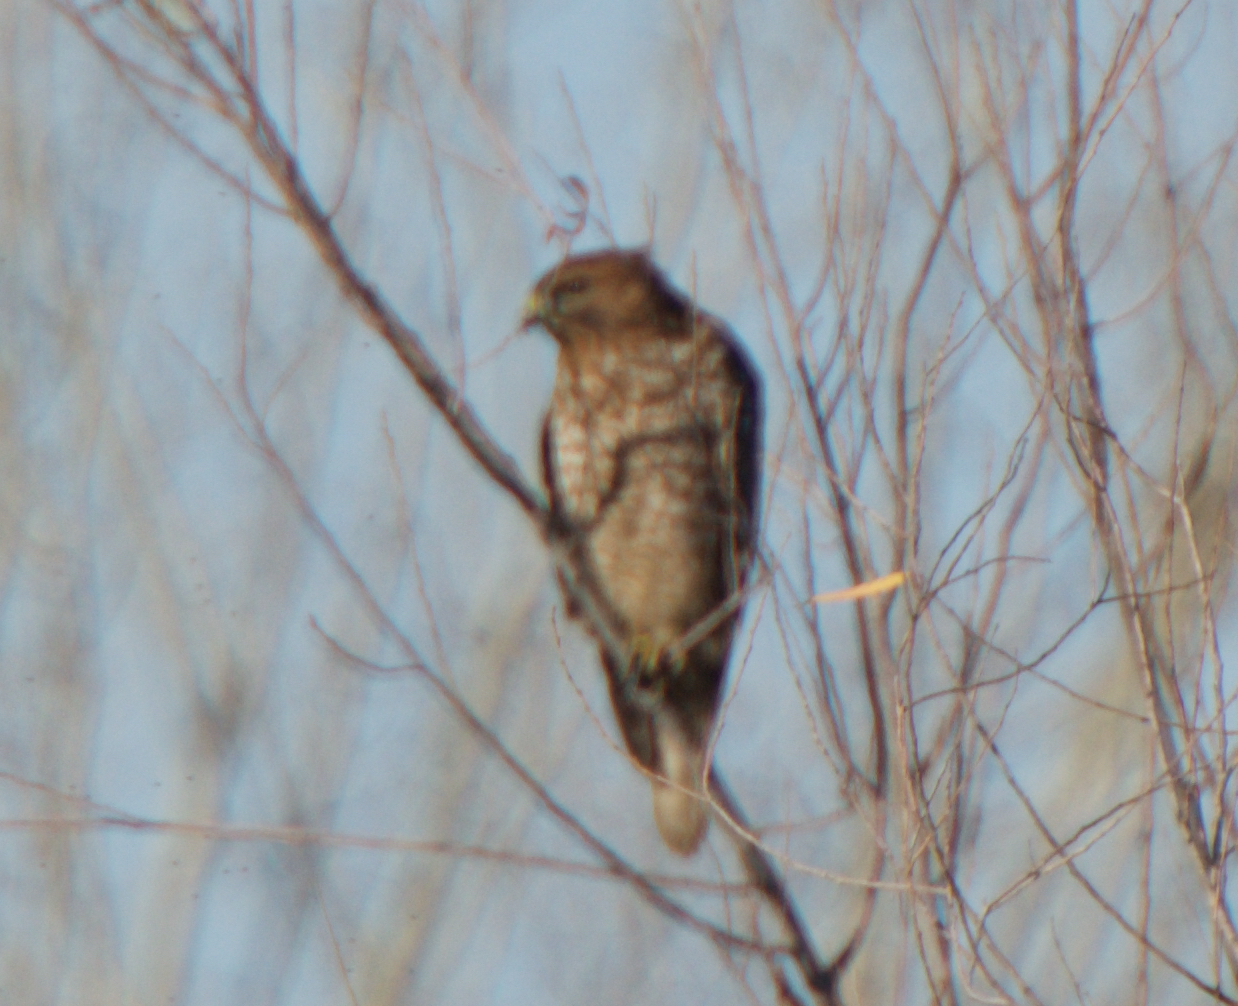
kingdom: Animalia
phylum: Chordata
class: Aves
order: Accipitriformes
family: Accipitridae
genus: Buteo
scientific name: Buteo lineatus
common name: Red-shouldered hawk
